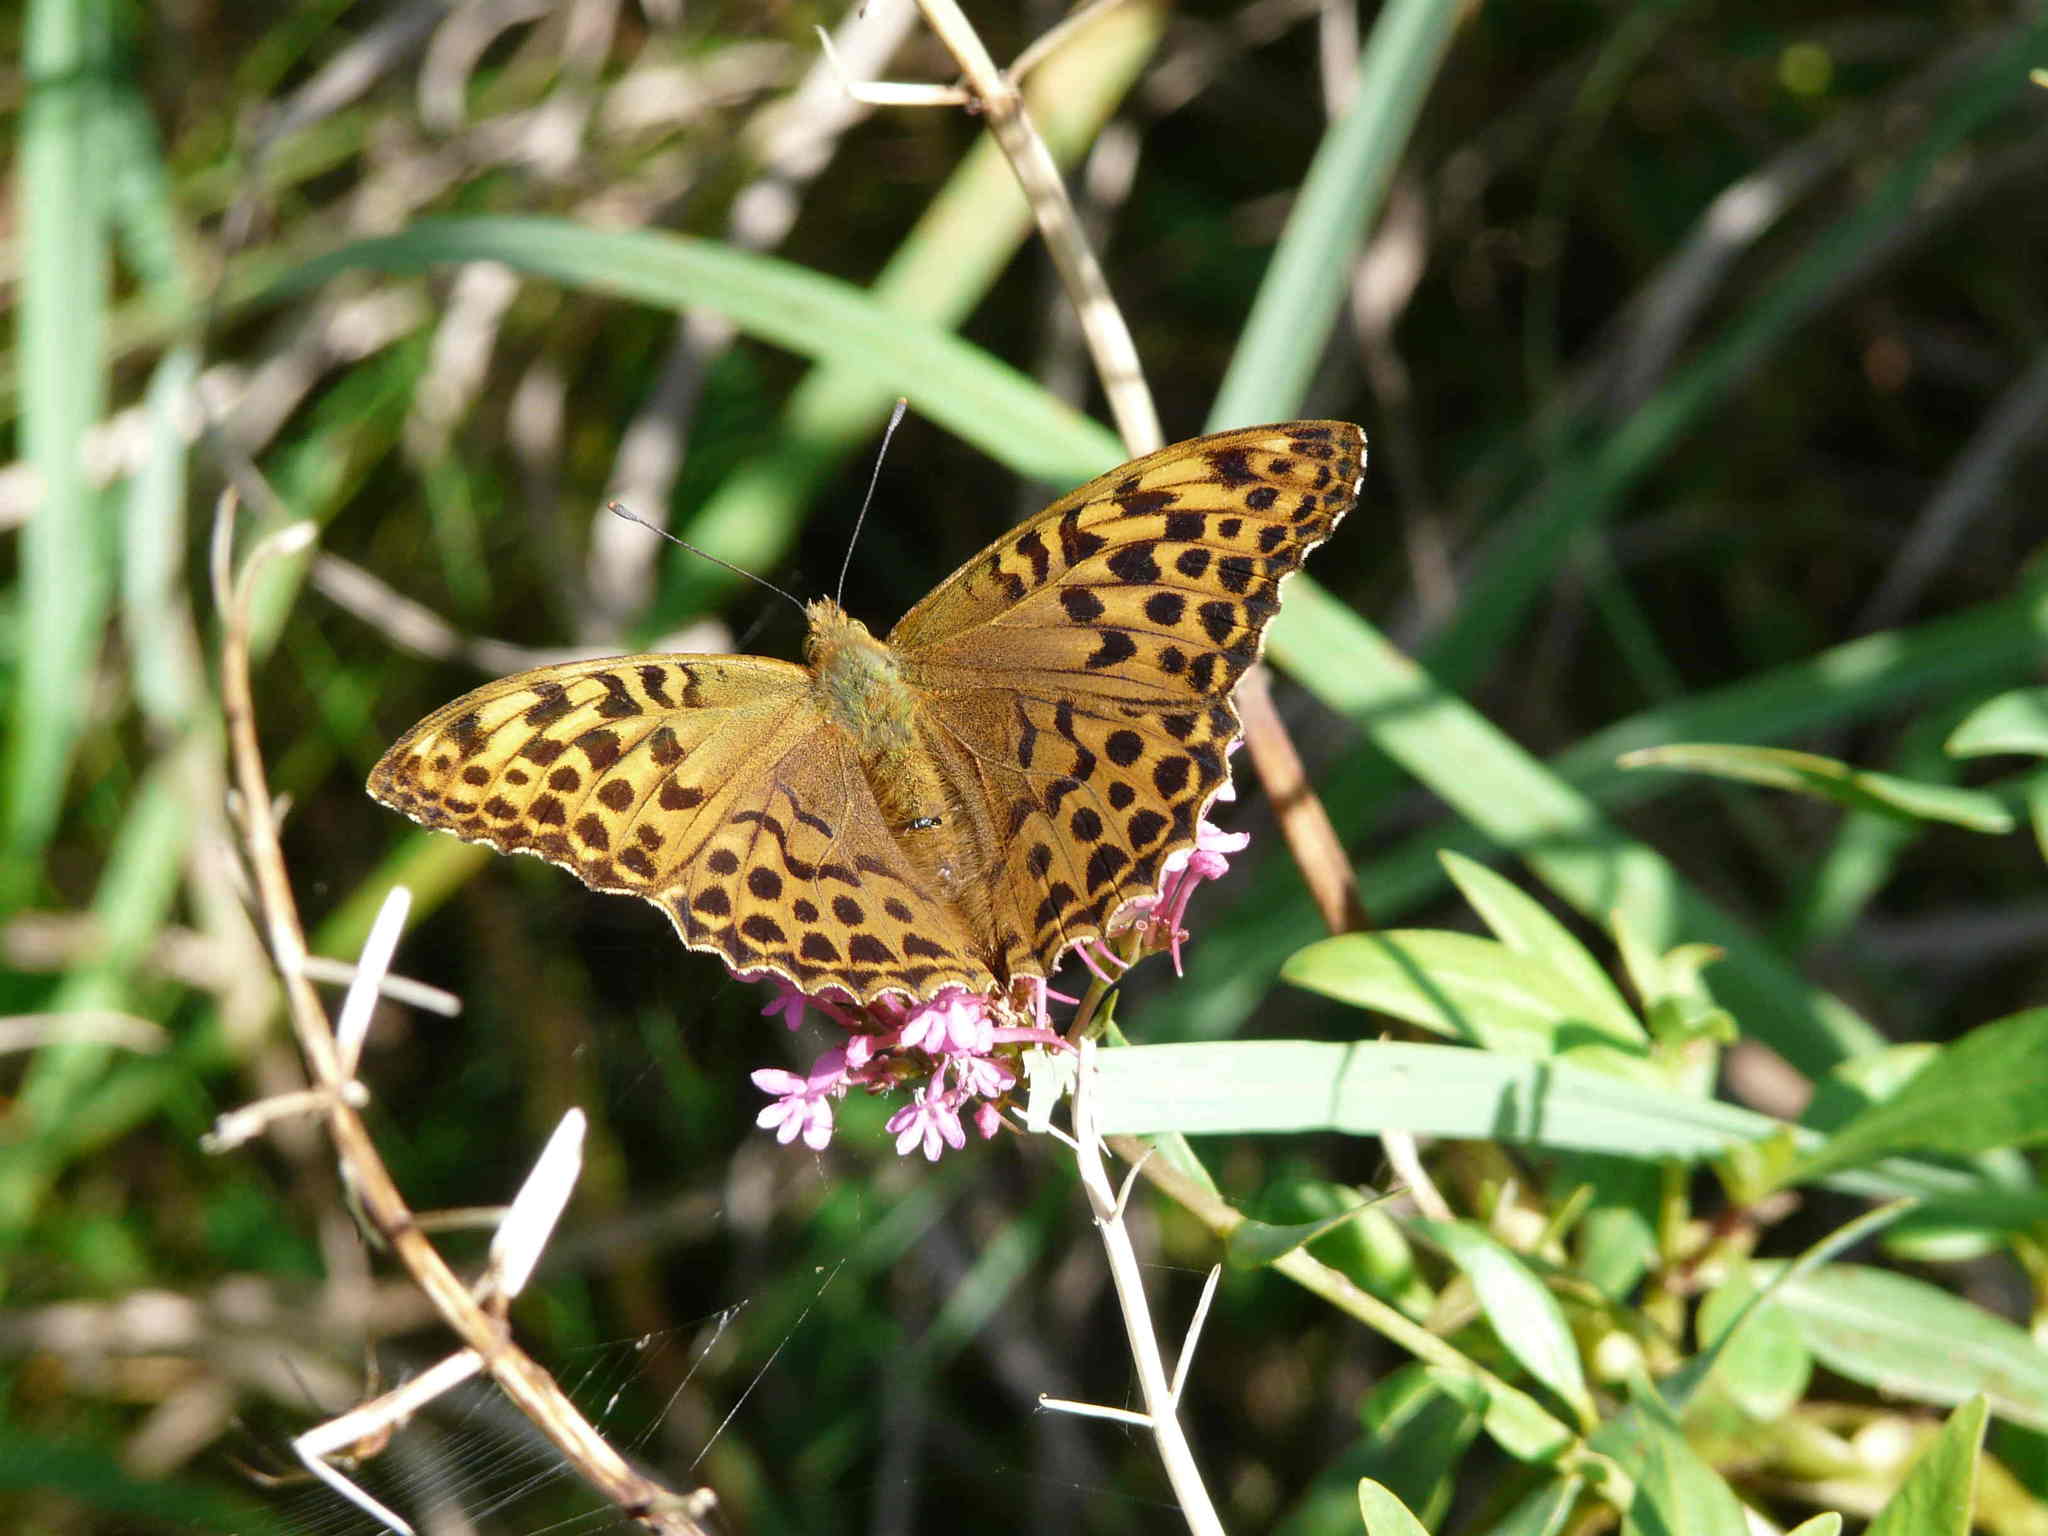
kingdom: Animalia
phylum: Arthropoda
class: Insecta
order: Lepidoptera
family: Nymphalidae
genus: Argynnis
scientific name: Argynnis paphia
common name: Silver-washed fritillary
